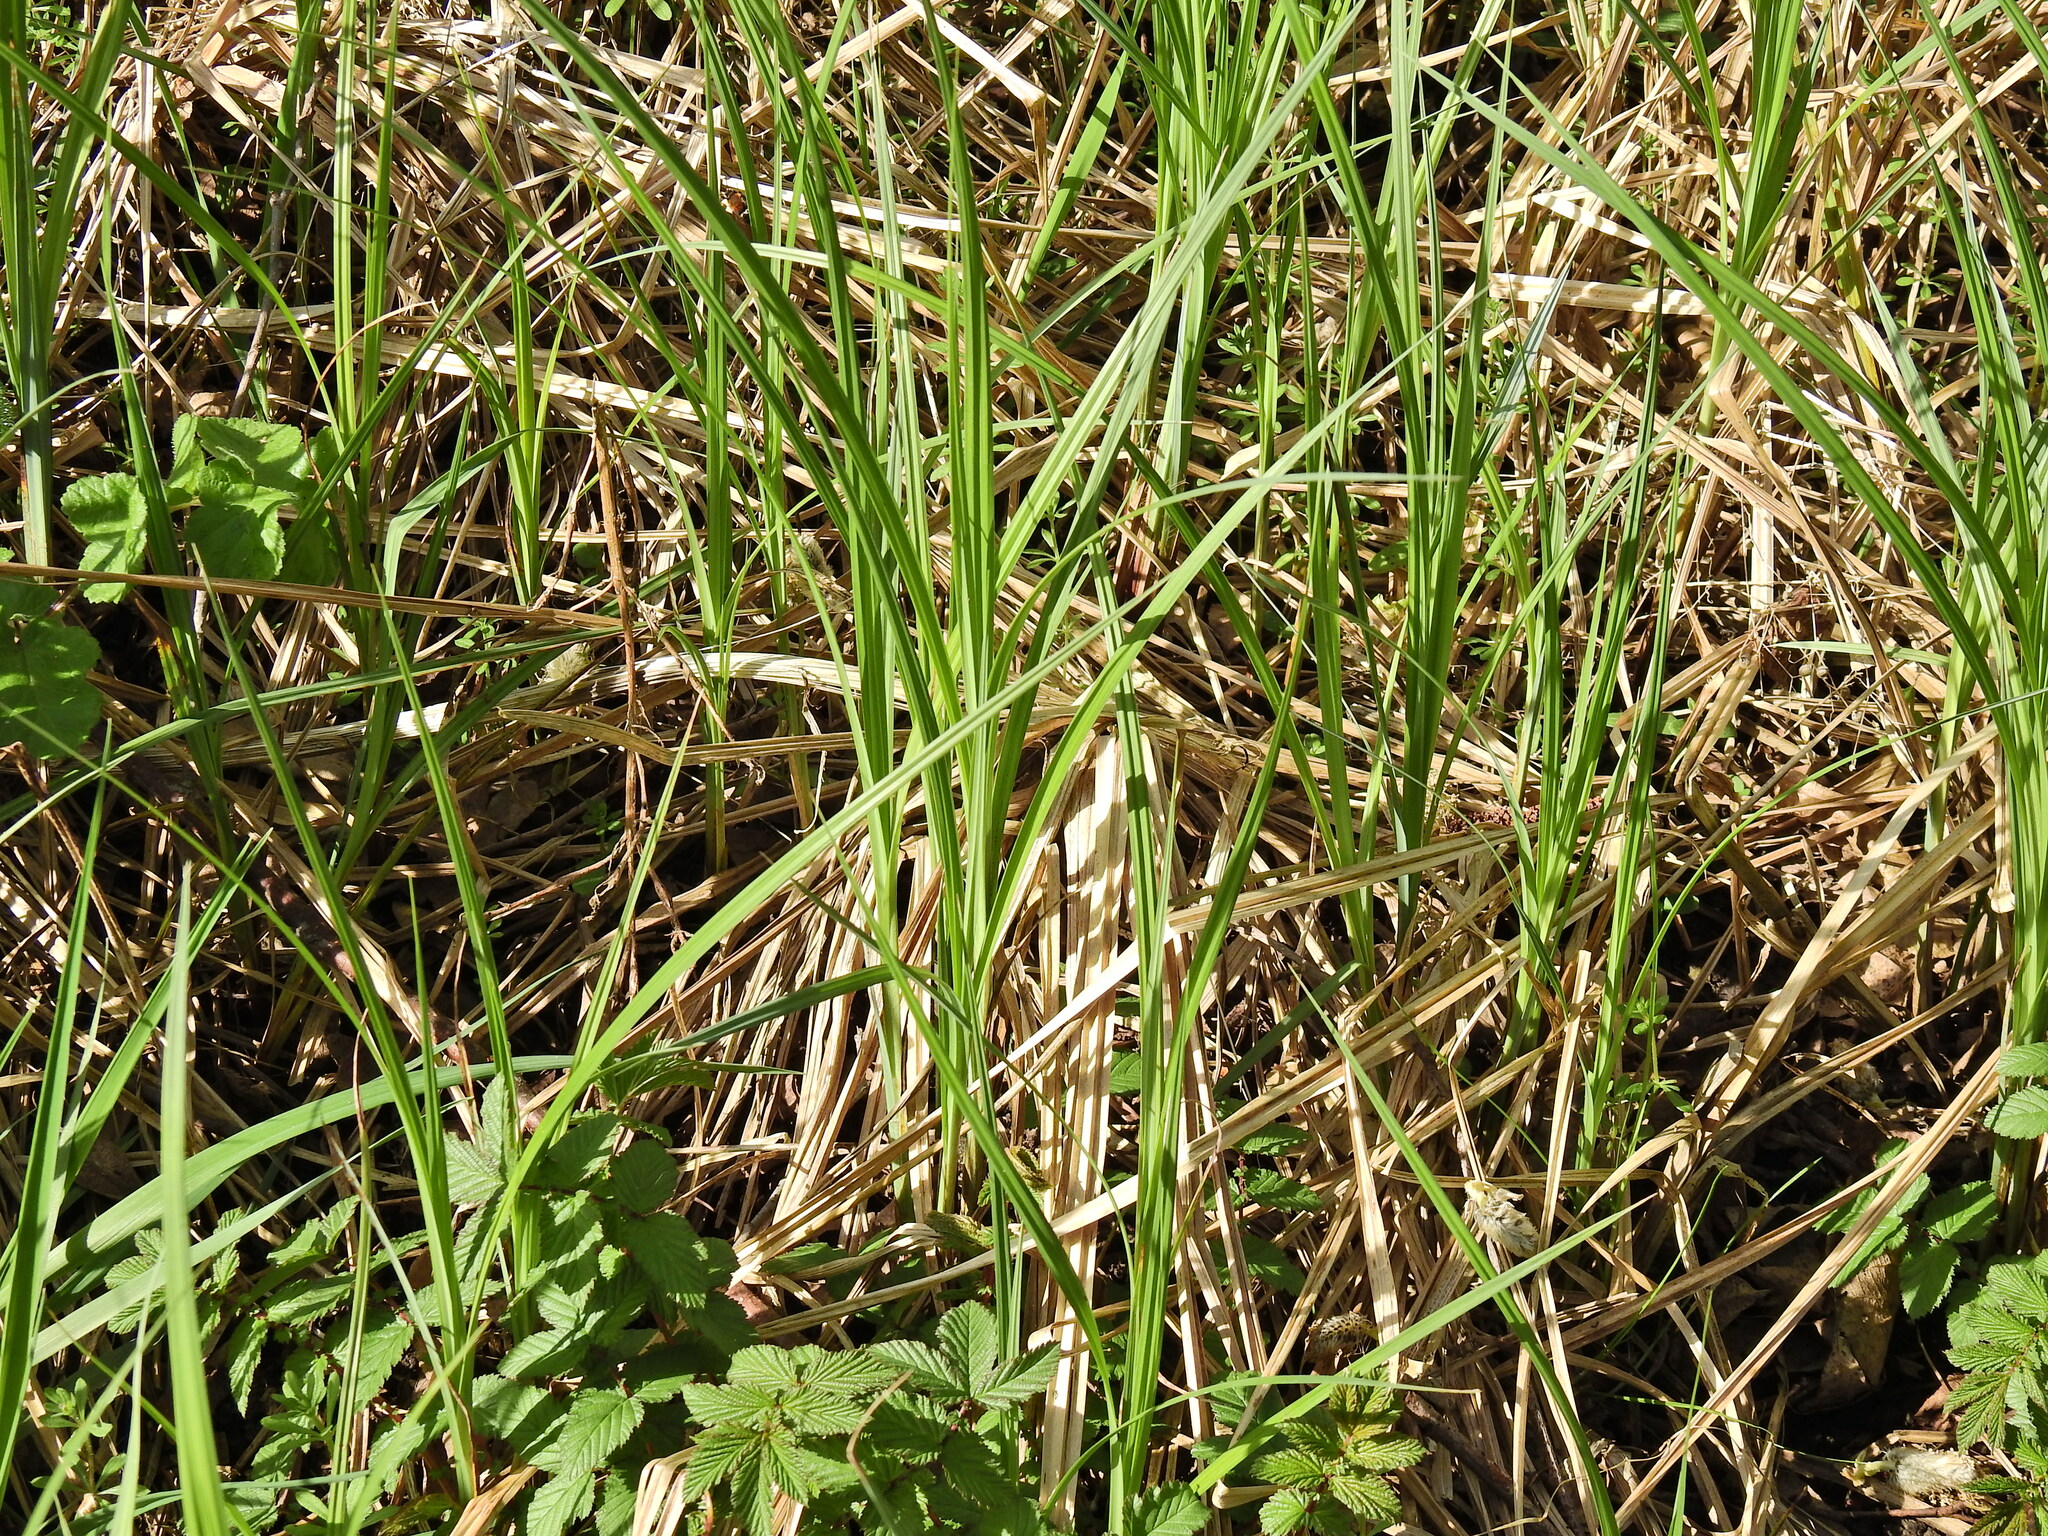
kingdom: Plantae
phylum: Tracheophyta
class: Liliopsida
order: Poales
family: Cyperaceae
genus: Carex
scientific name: Carex hirta
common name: Hairy sedge
